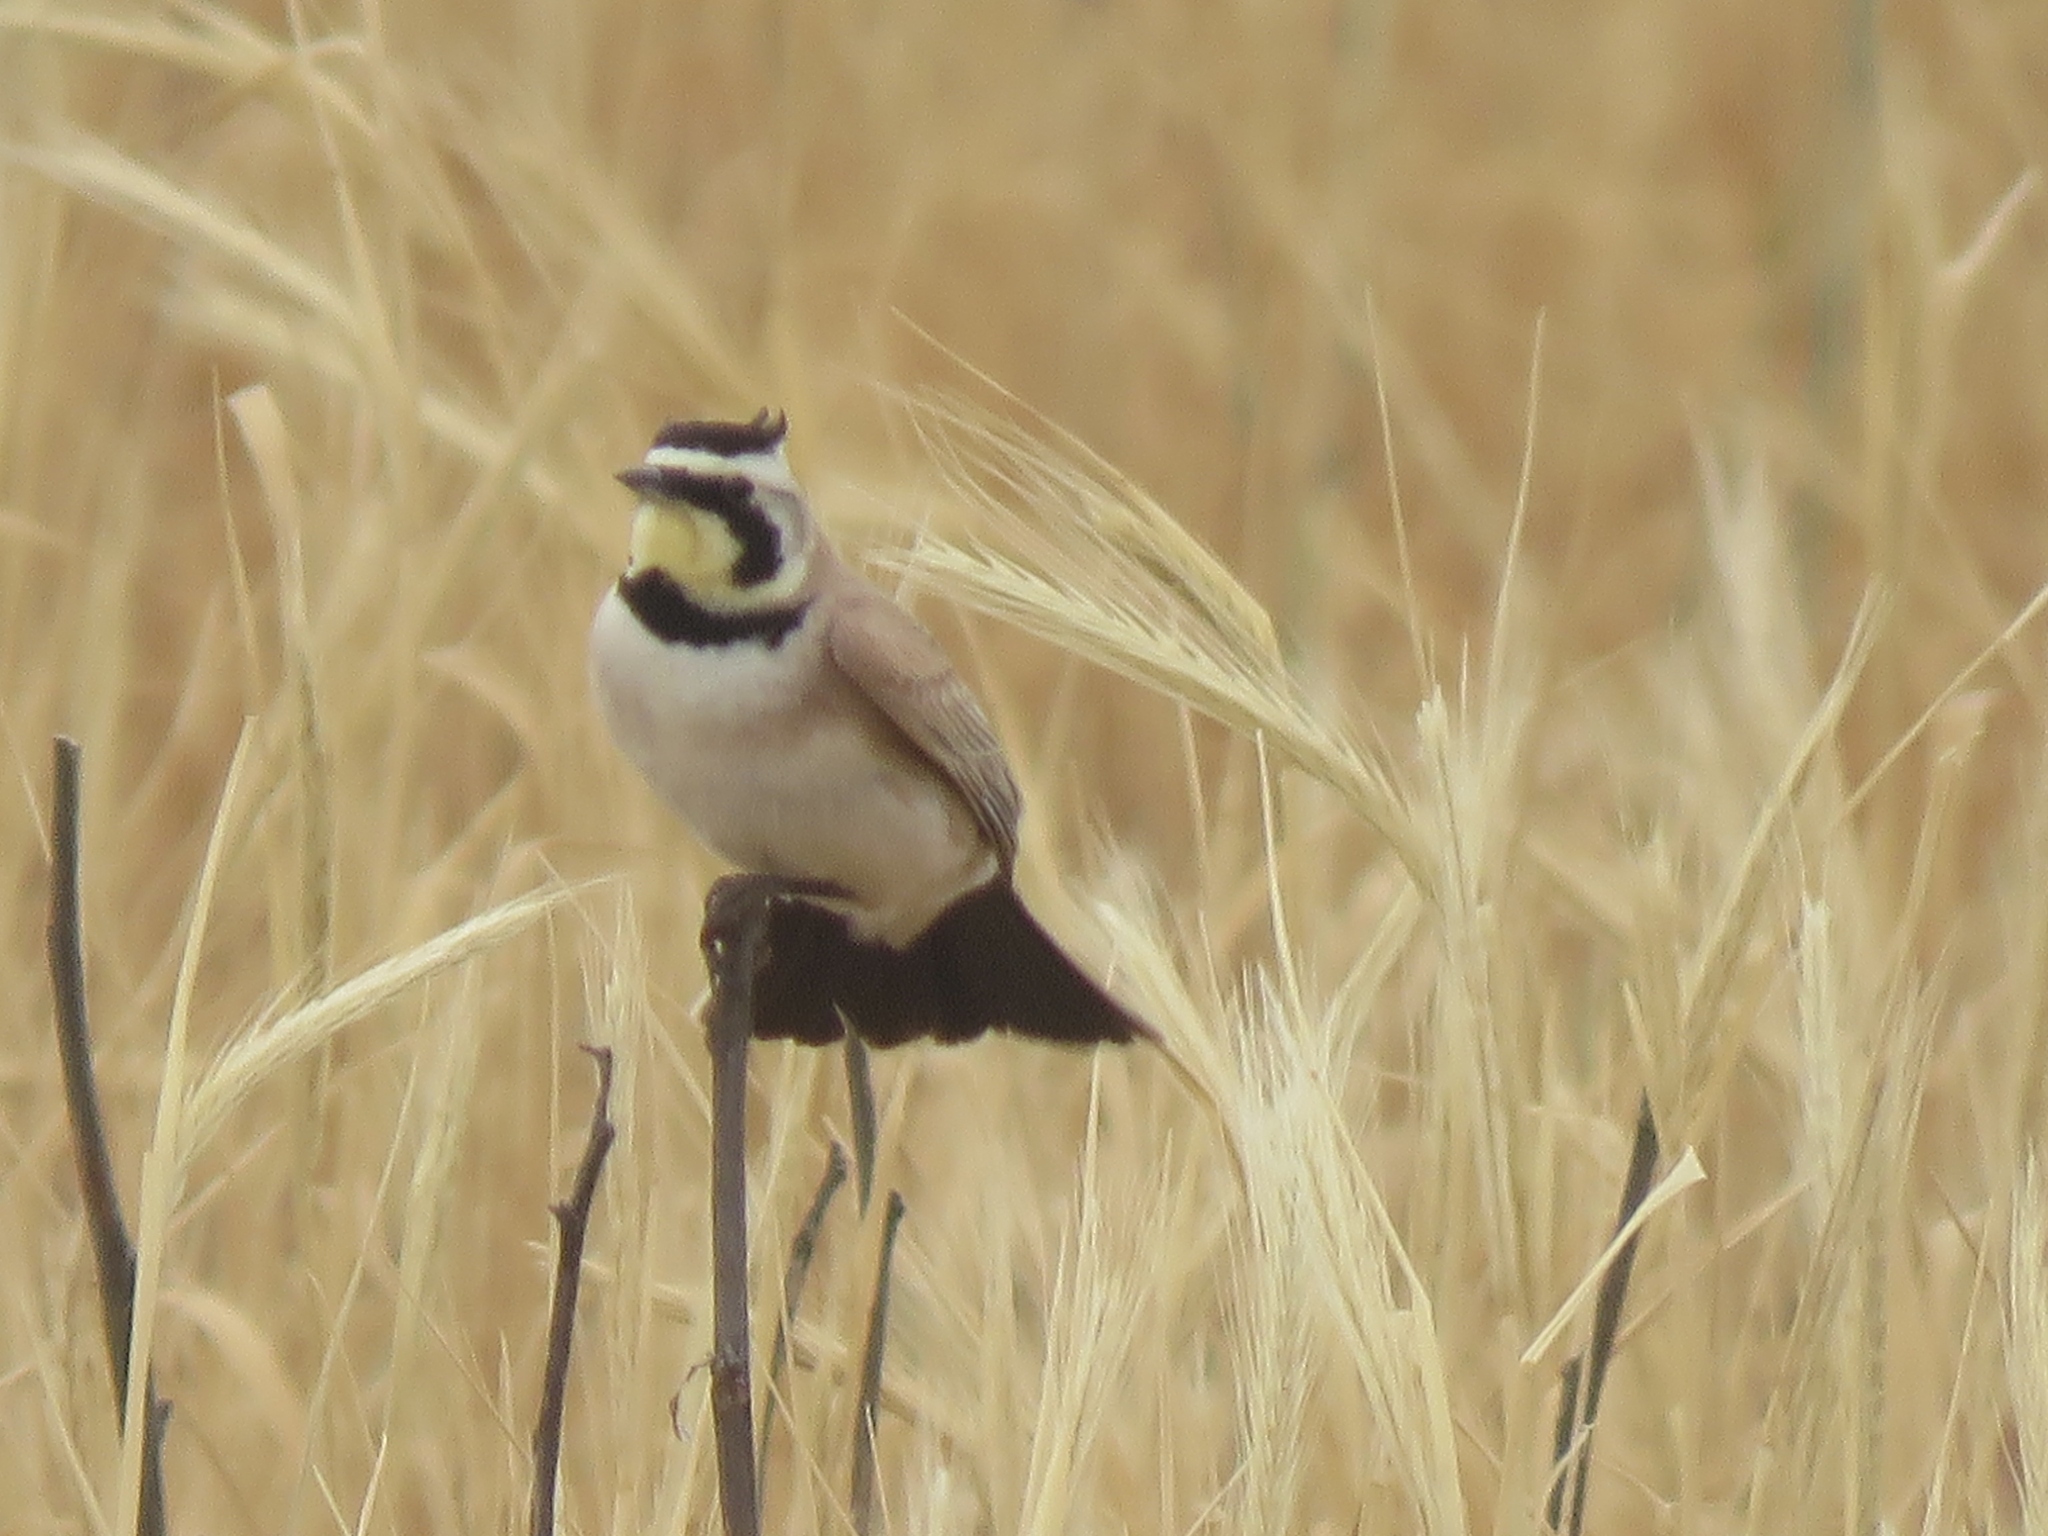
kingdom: Animalia
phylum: Chordata
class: Aves
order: Passeriformes
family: Alaudidae
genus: Eremophila
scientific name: Eremophila alpestris
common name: Horned lark
